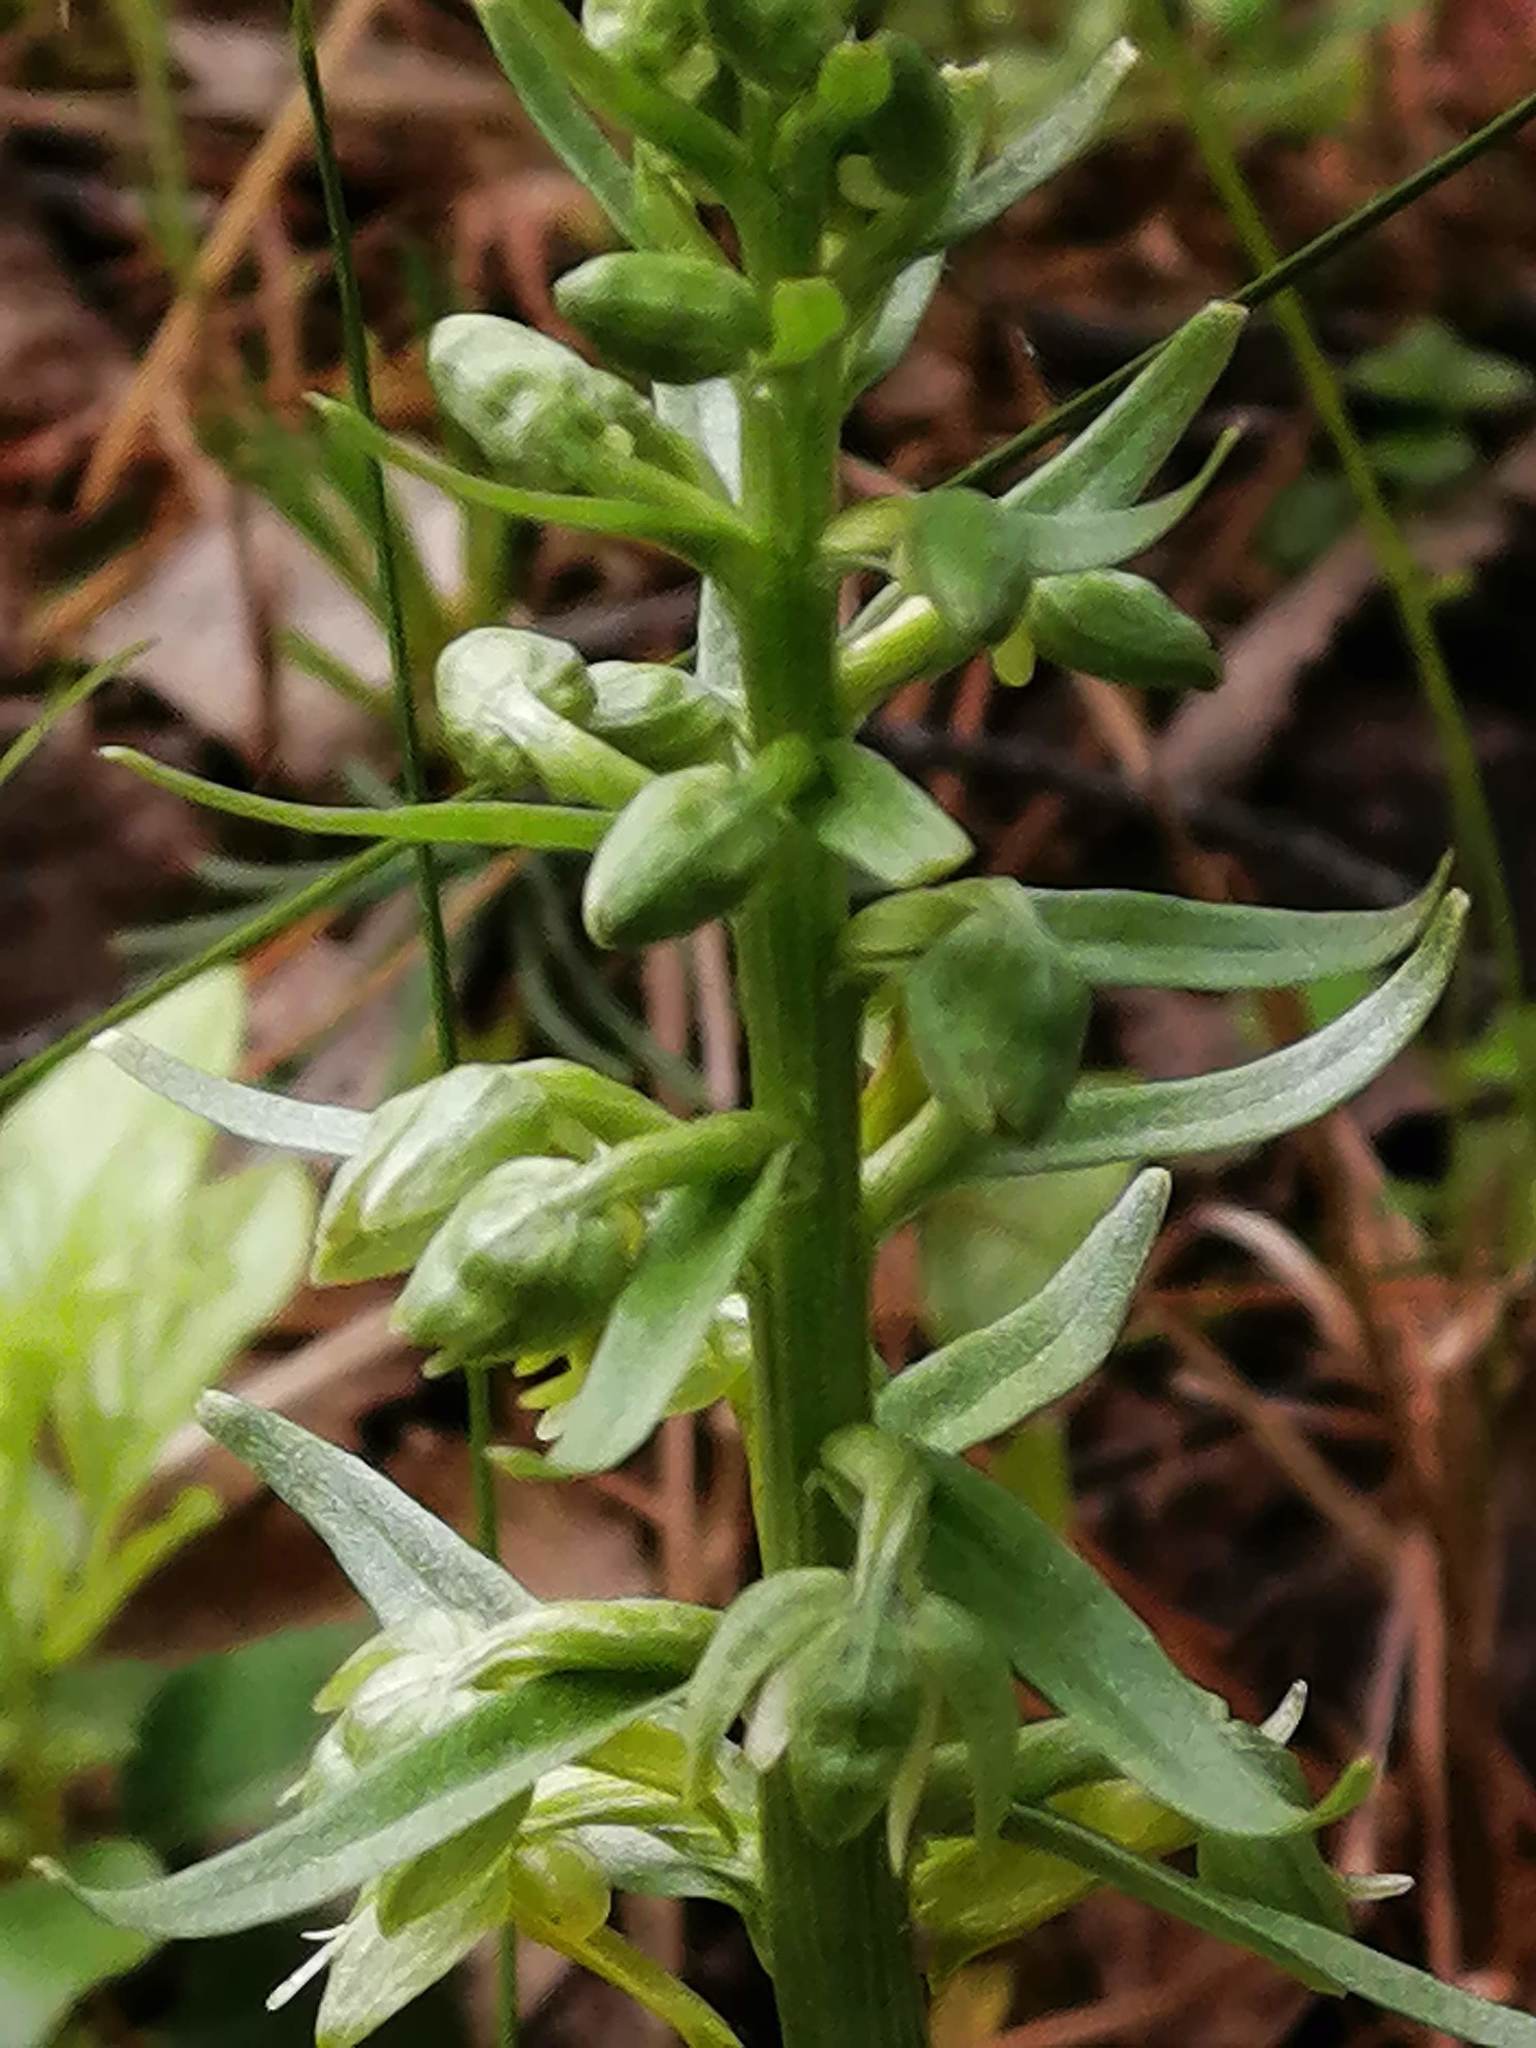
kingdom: Plantae
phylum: Tracheophyta
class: Liliopsida
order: Asparagales
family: Orchidaceae
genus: Dactylorhiza
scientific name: Dactylorhiza viridis
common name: Longbract frog orchid
